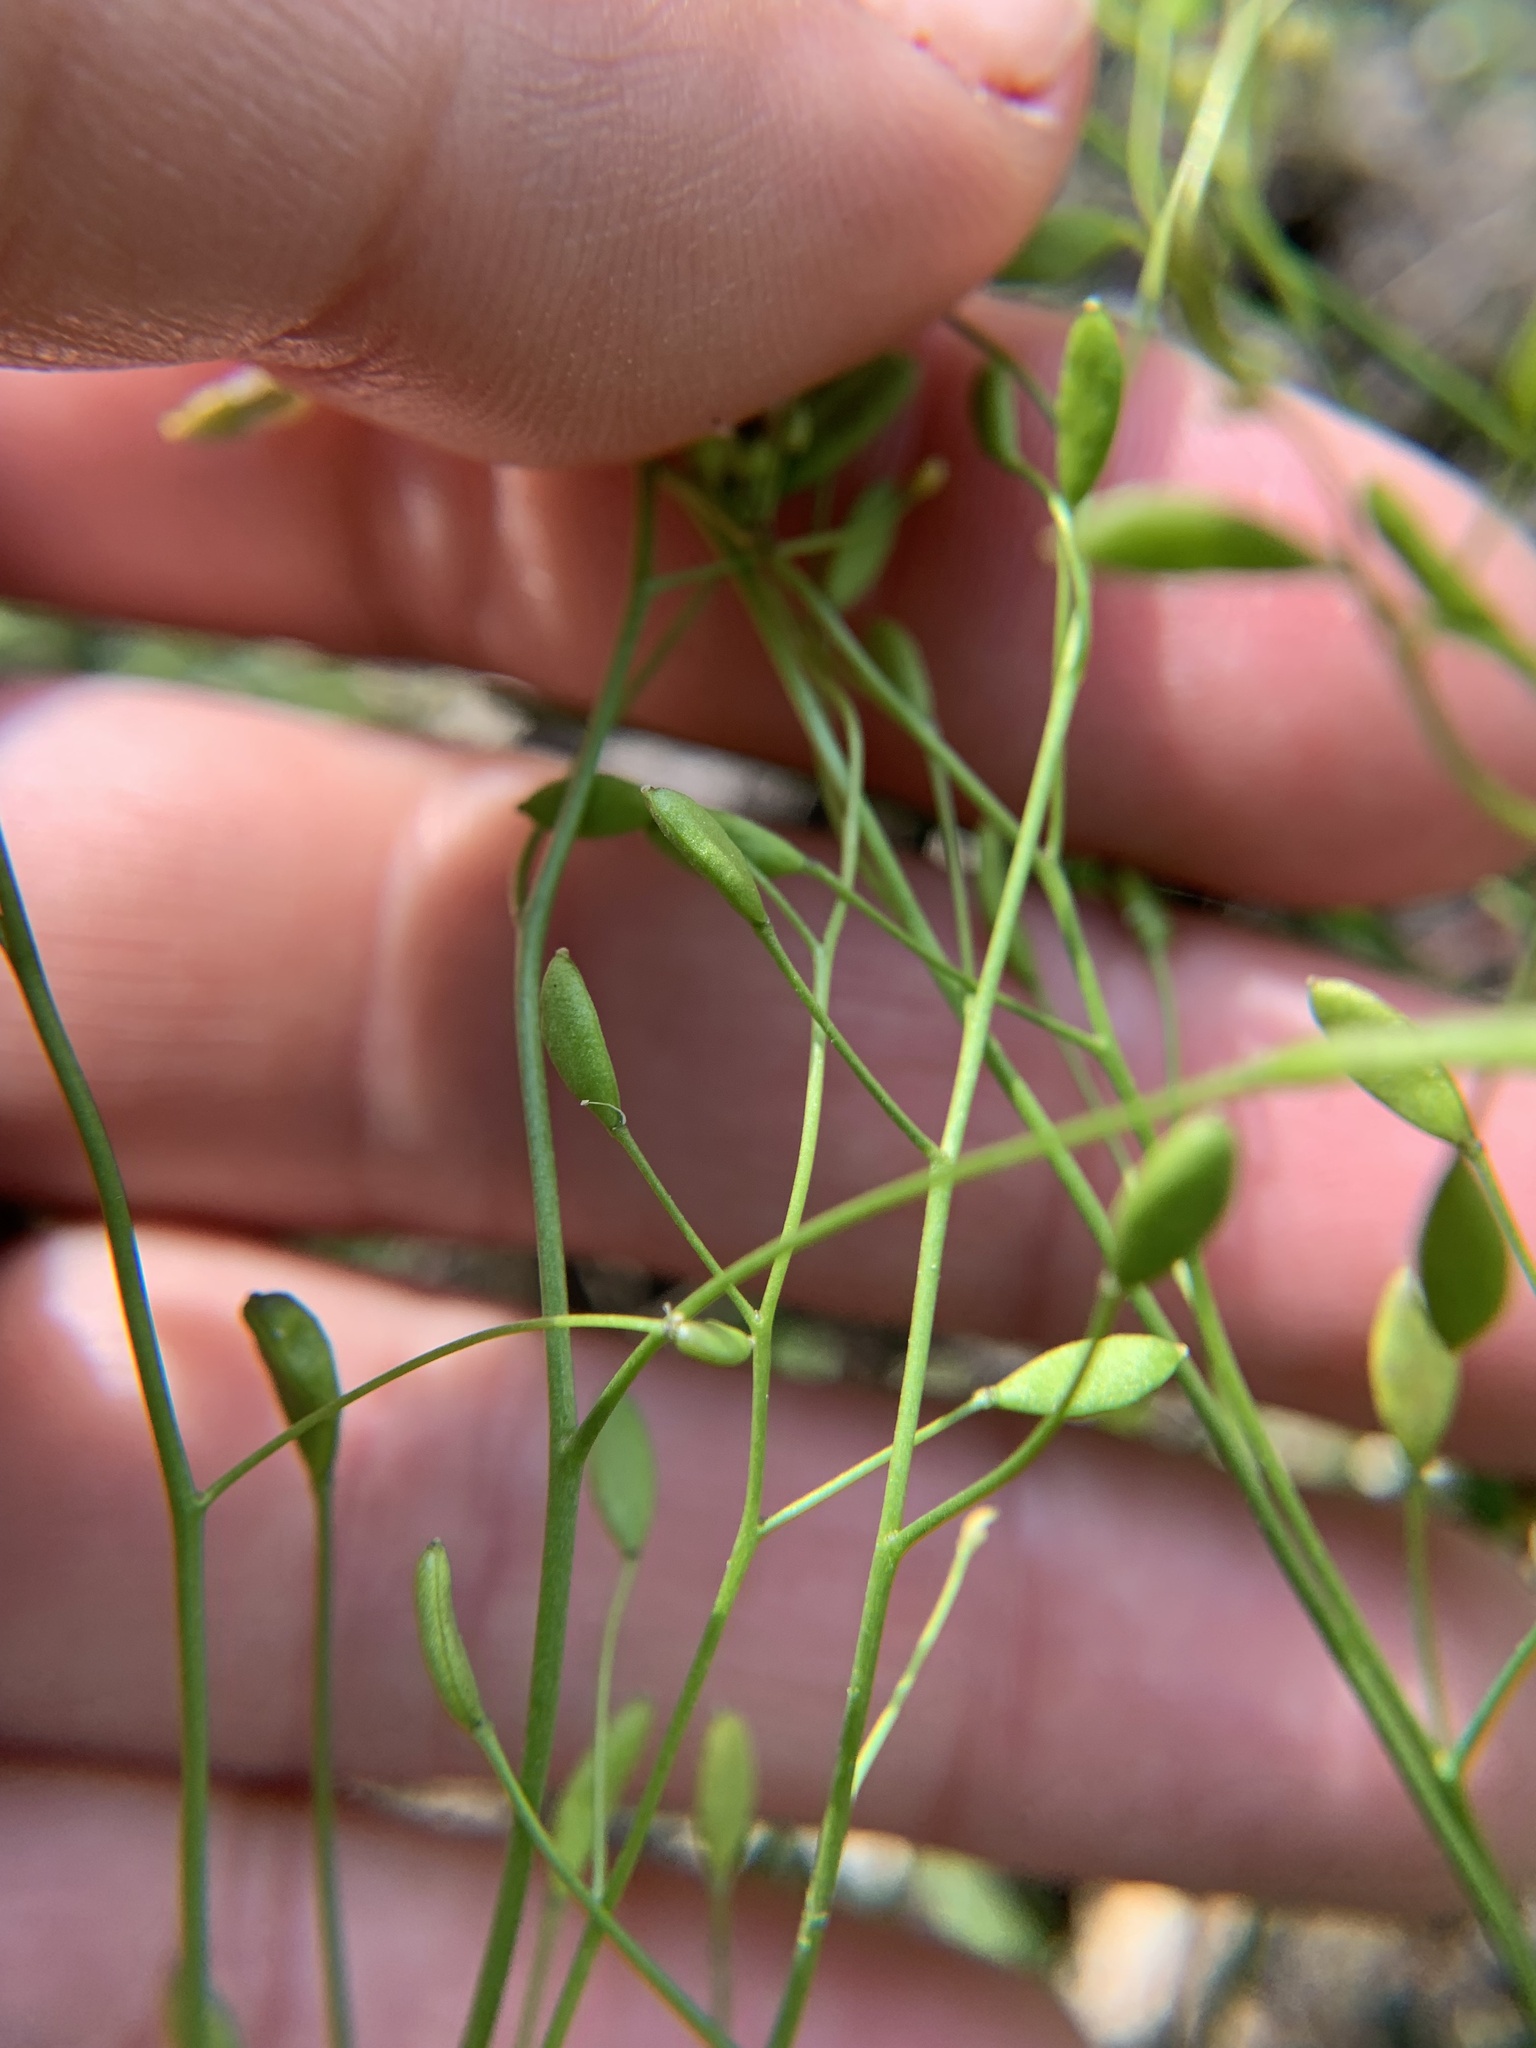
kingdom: Plantae
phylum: Tracheophyta
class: Magnoliopsida
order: Brassicales
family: Brassicaceae
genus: Draba
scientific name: Draba verna
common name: Spring draba
